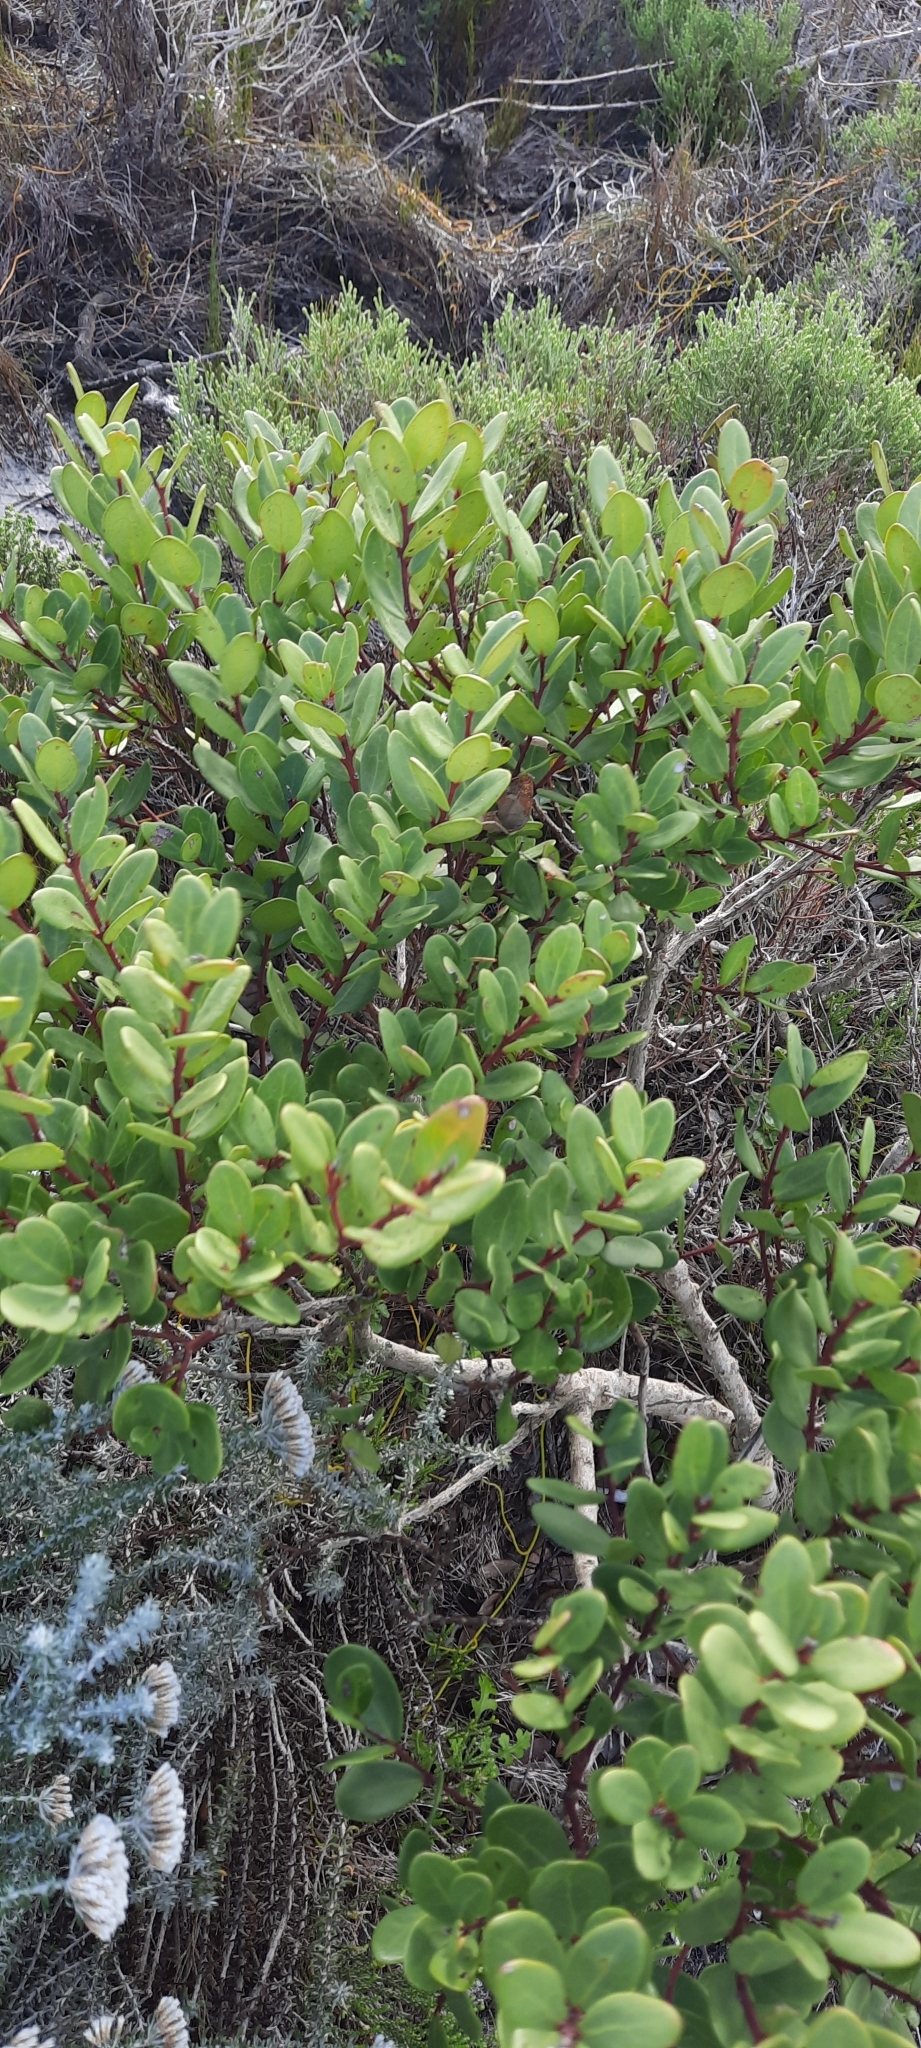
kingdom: Plantae
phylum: Tracheophyta
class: Magnoliopsida
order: Ericales
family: Ebenaceae
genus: Euclea
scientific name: Euclea racemosa
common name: Dune guarri
